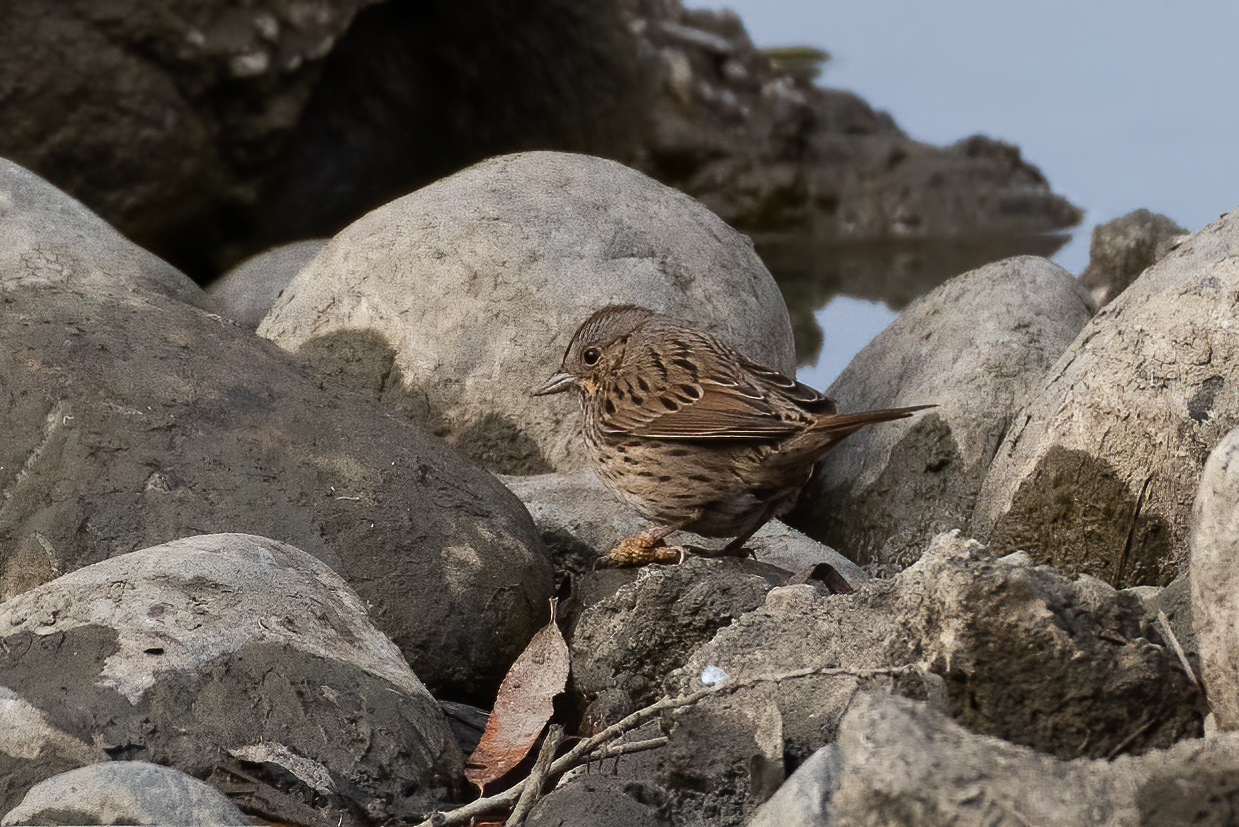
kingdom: Animalia
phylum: Chordata
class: Aves
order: Passeriformes
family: Passerellidae
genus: Melospiza
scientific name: Melospiza lincolnii
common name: Lincoln's sparrow
